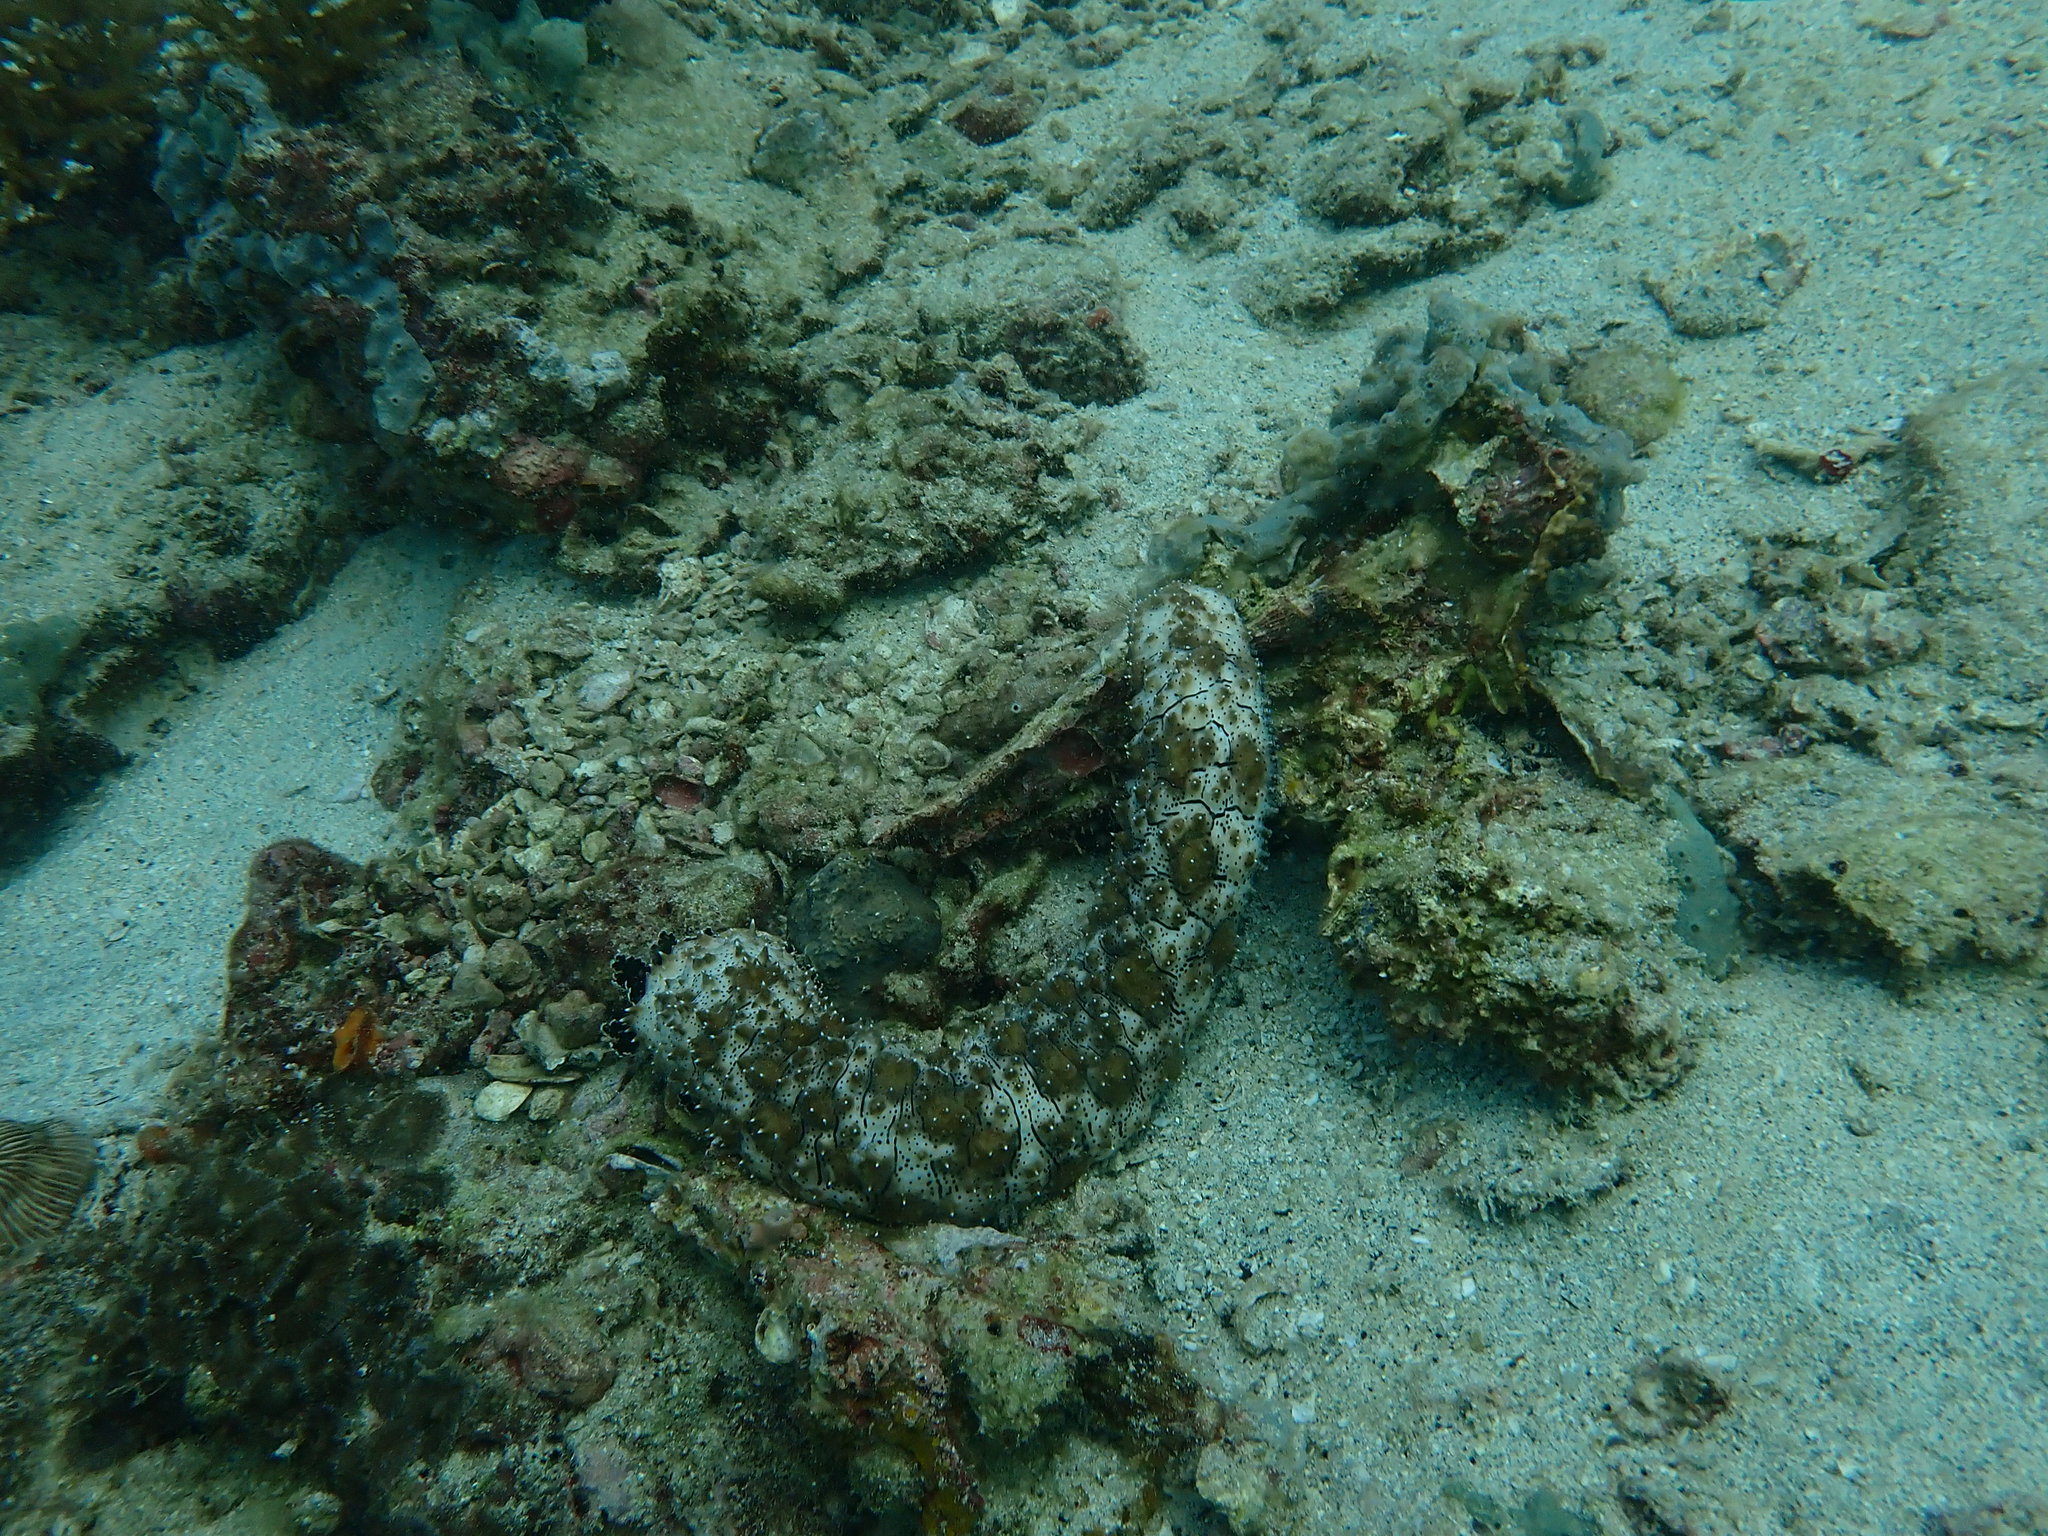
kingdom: Animalia
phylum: Echinodermata
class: Holothuroidea
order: Holothuriida
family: Holothuriidae
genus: Pearsonothuria
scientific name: Pearsonothuria graeffei
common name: Blackspotted sea cucumber
